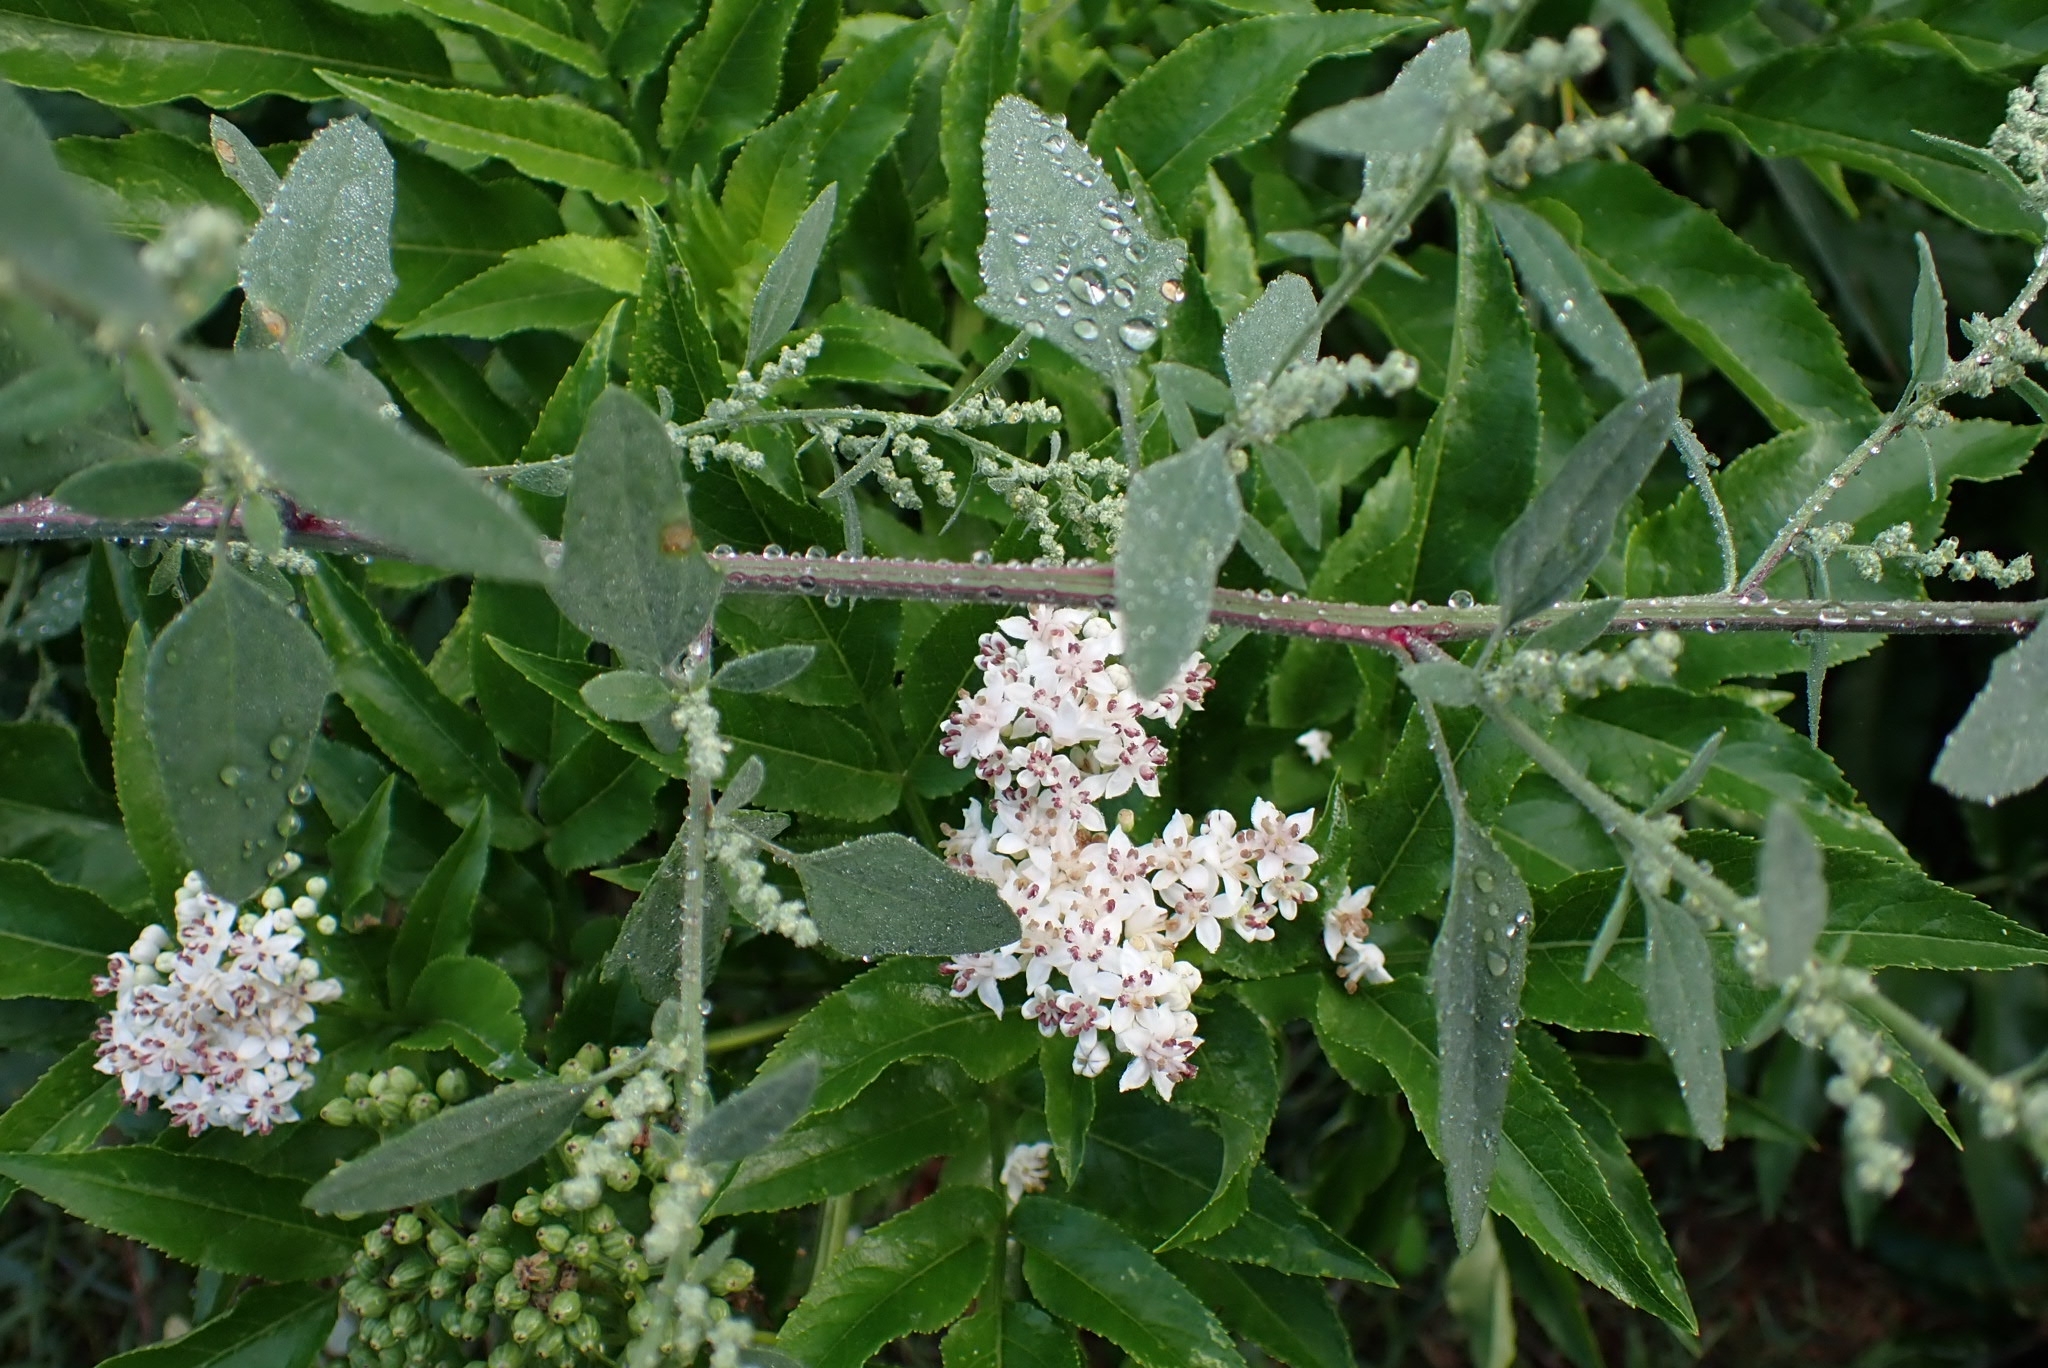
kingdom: Plantae
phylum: Tracheophyta
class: Magnoliopsida
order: Dipsacales
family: Viburnaceae
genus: Sambucus
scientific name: Sambucus ebulus
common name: Dwarf elder
